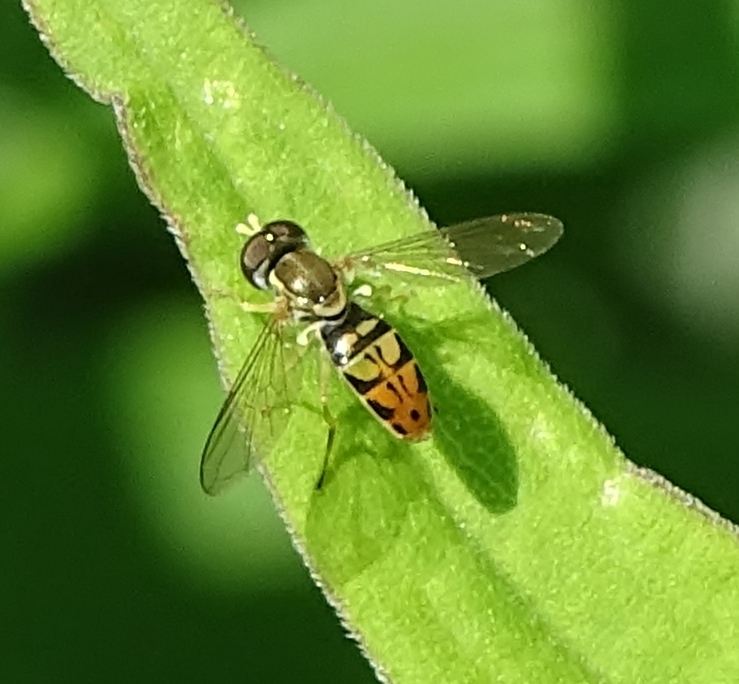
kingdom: Animalia
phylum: Arthropoda
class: Insecta
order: Diptera
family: Syrphidae
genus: Toxomerus
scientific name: Toxomerus marginatus
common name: Syrphid fly
